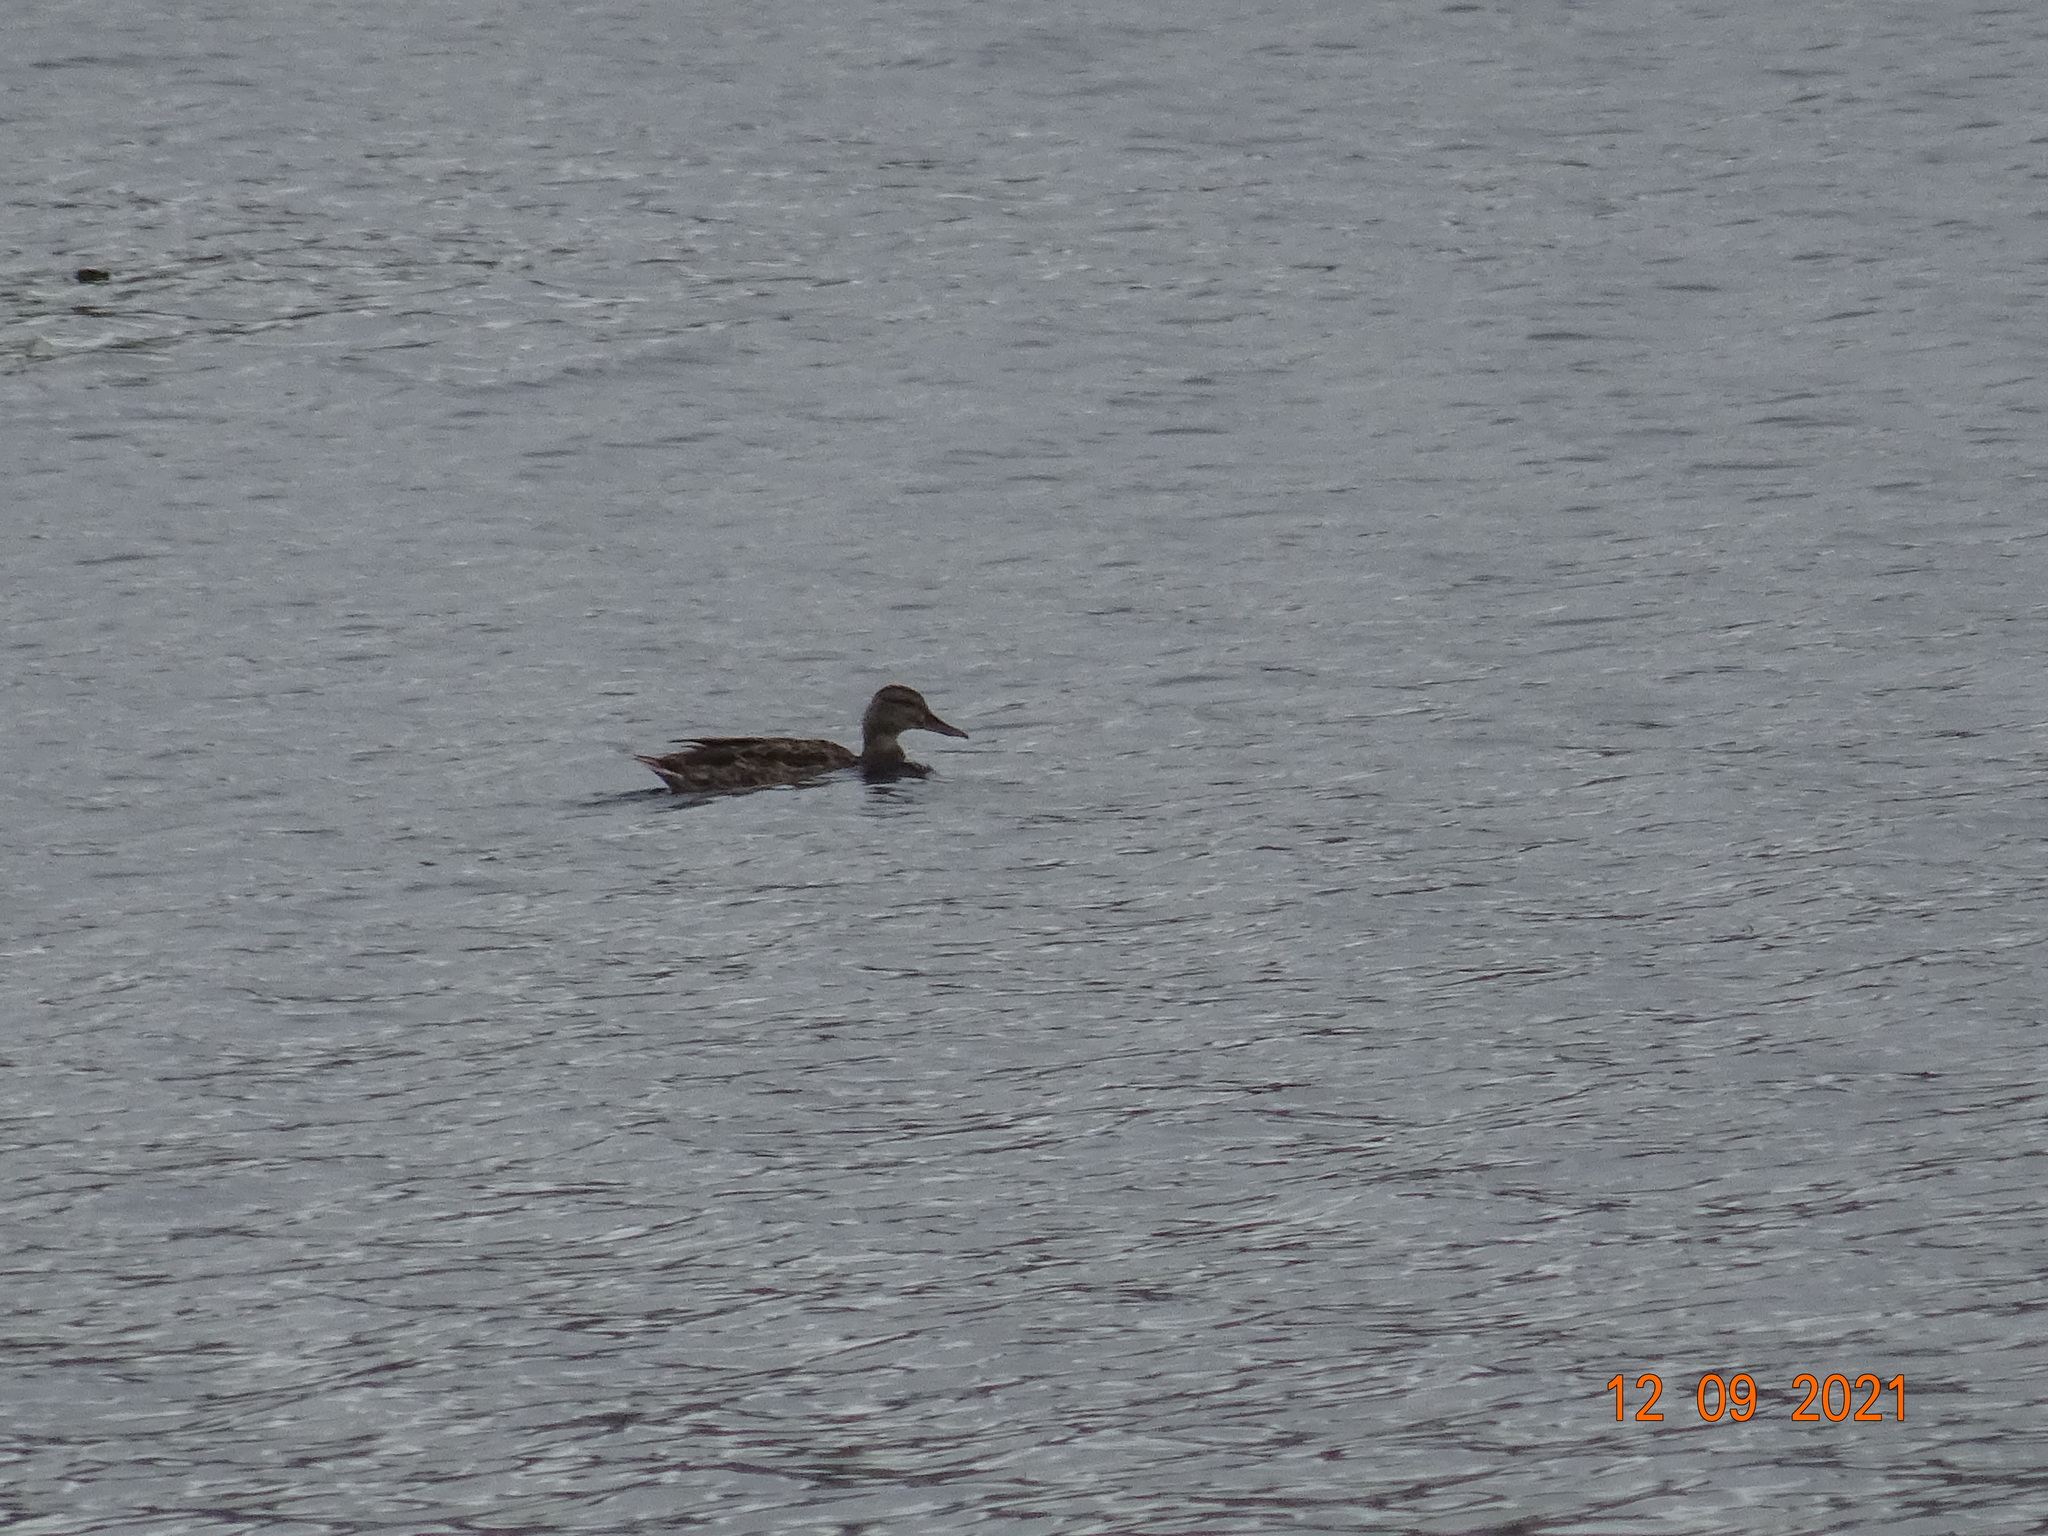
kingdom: Animalia
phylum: Chordata
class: Aves
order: Anseriformes
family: Anatidae
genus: Anas
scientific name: Anas platyrhynchos
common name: Mallard
